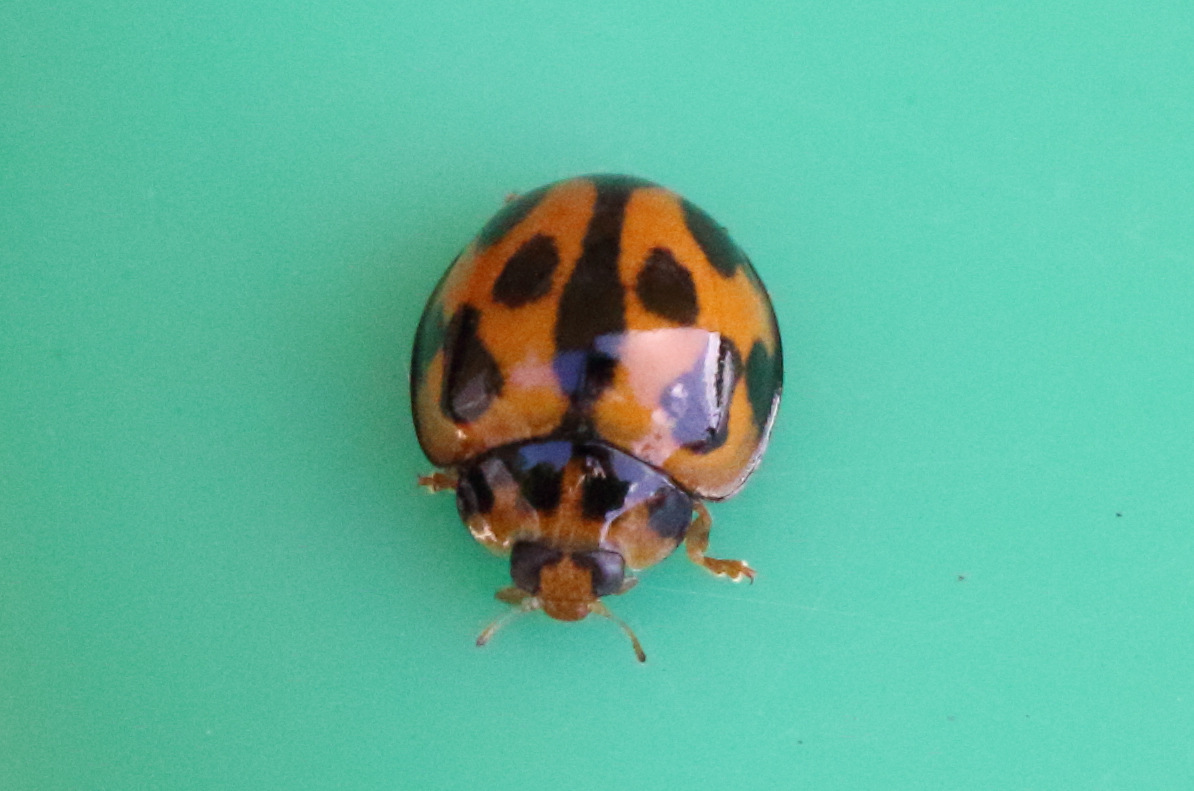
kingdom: Animalia
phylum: Arthropoda
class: Insecta
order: Coleoptera
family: Coccinellidae
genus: Coelophora
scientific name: Coelophora inaequalis
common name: Common australian lady beetle
